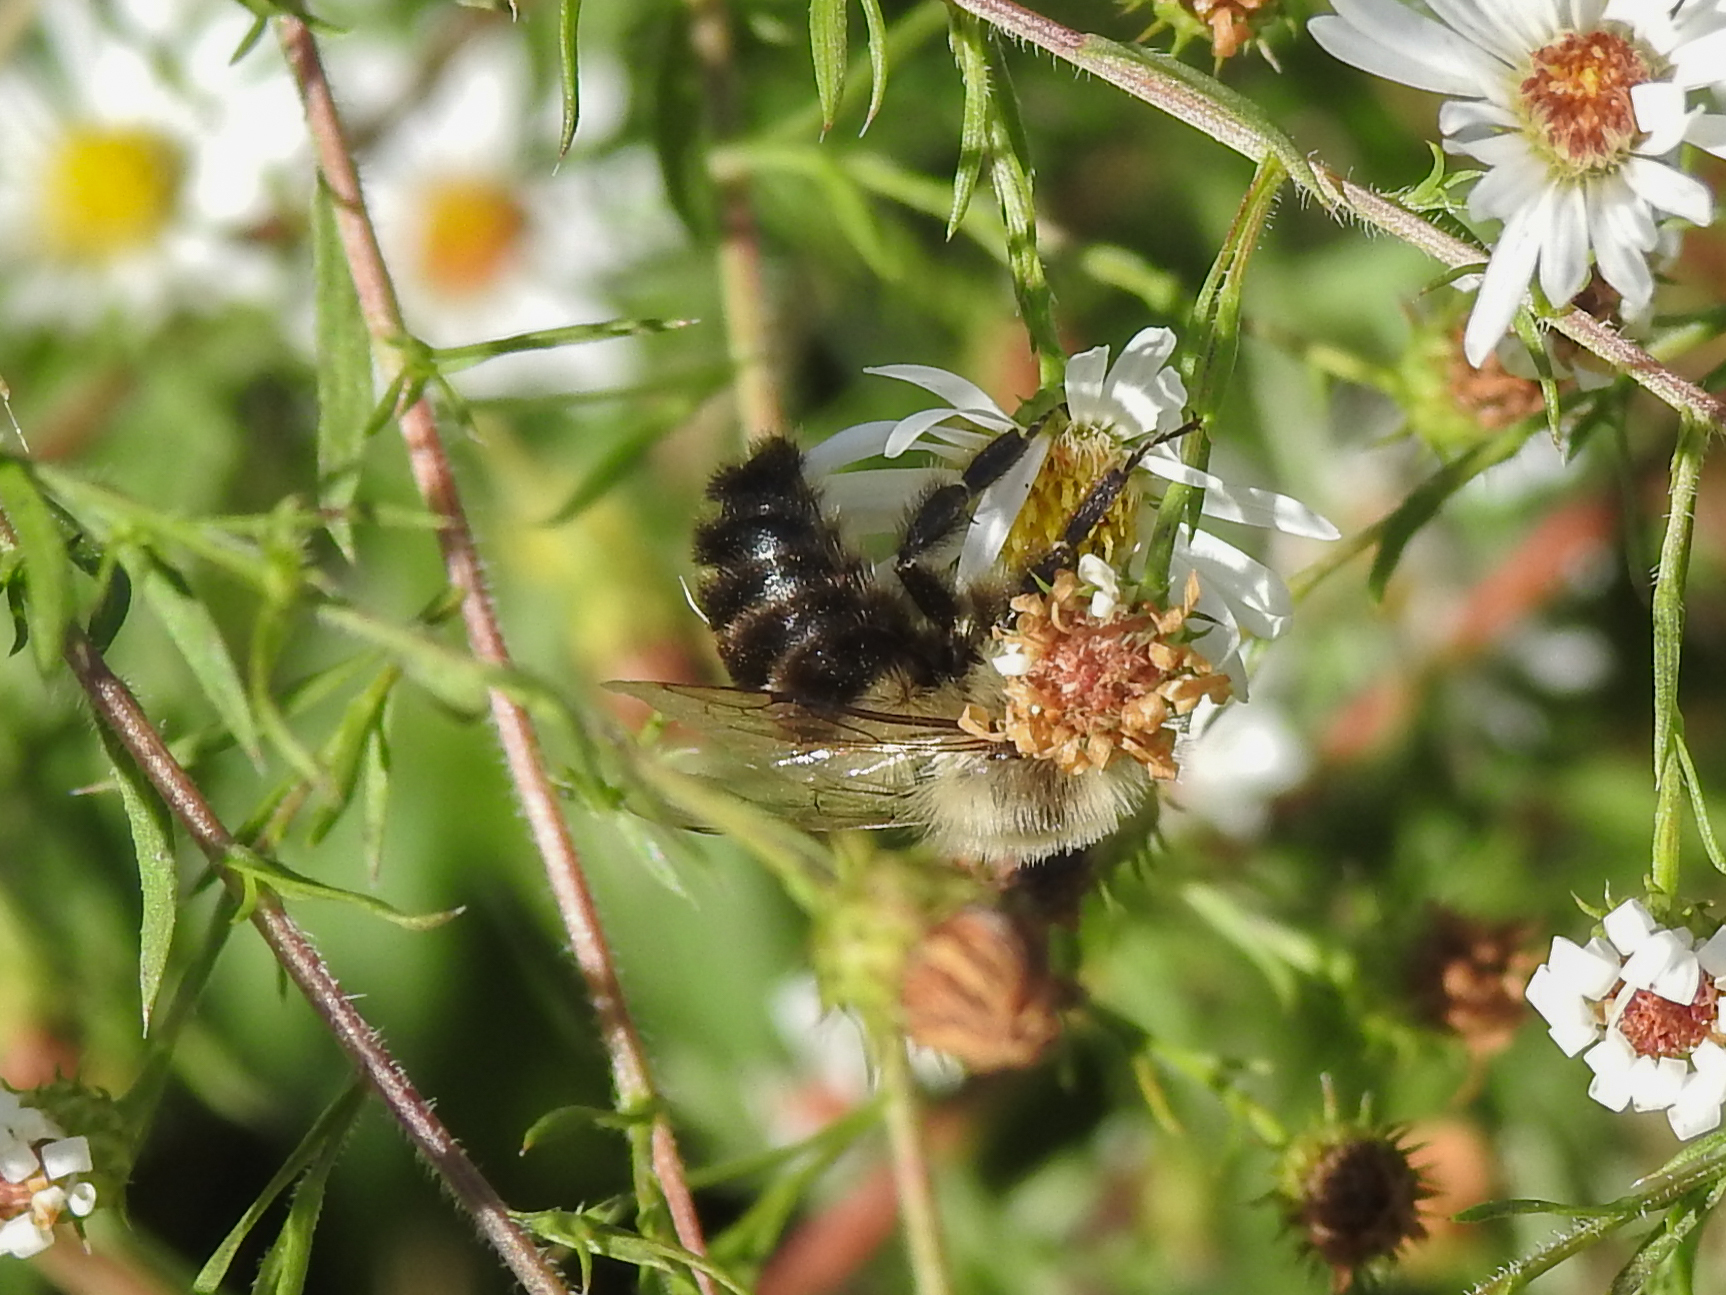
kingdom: Animalia
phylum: Arthropoda
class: Insecta
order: Hymenoptera
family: Apidae
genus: Bombus
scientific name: Bombus impatiens
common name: Common eastern bumble bee
